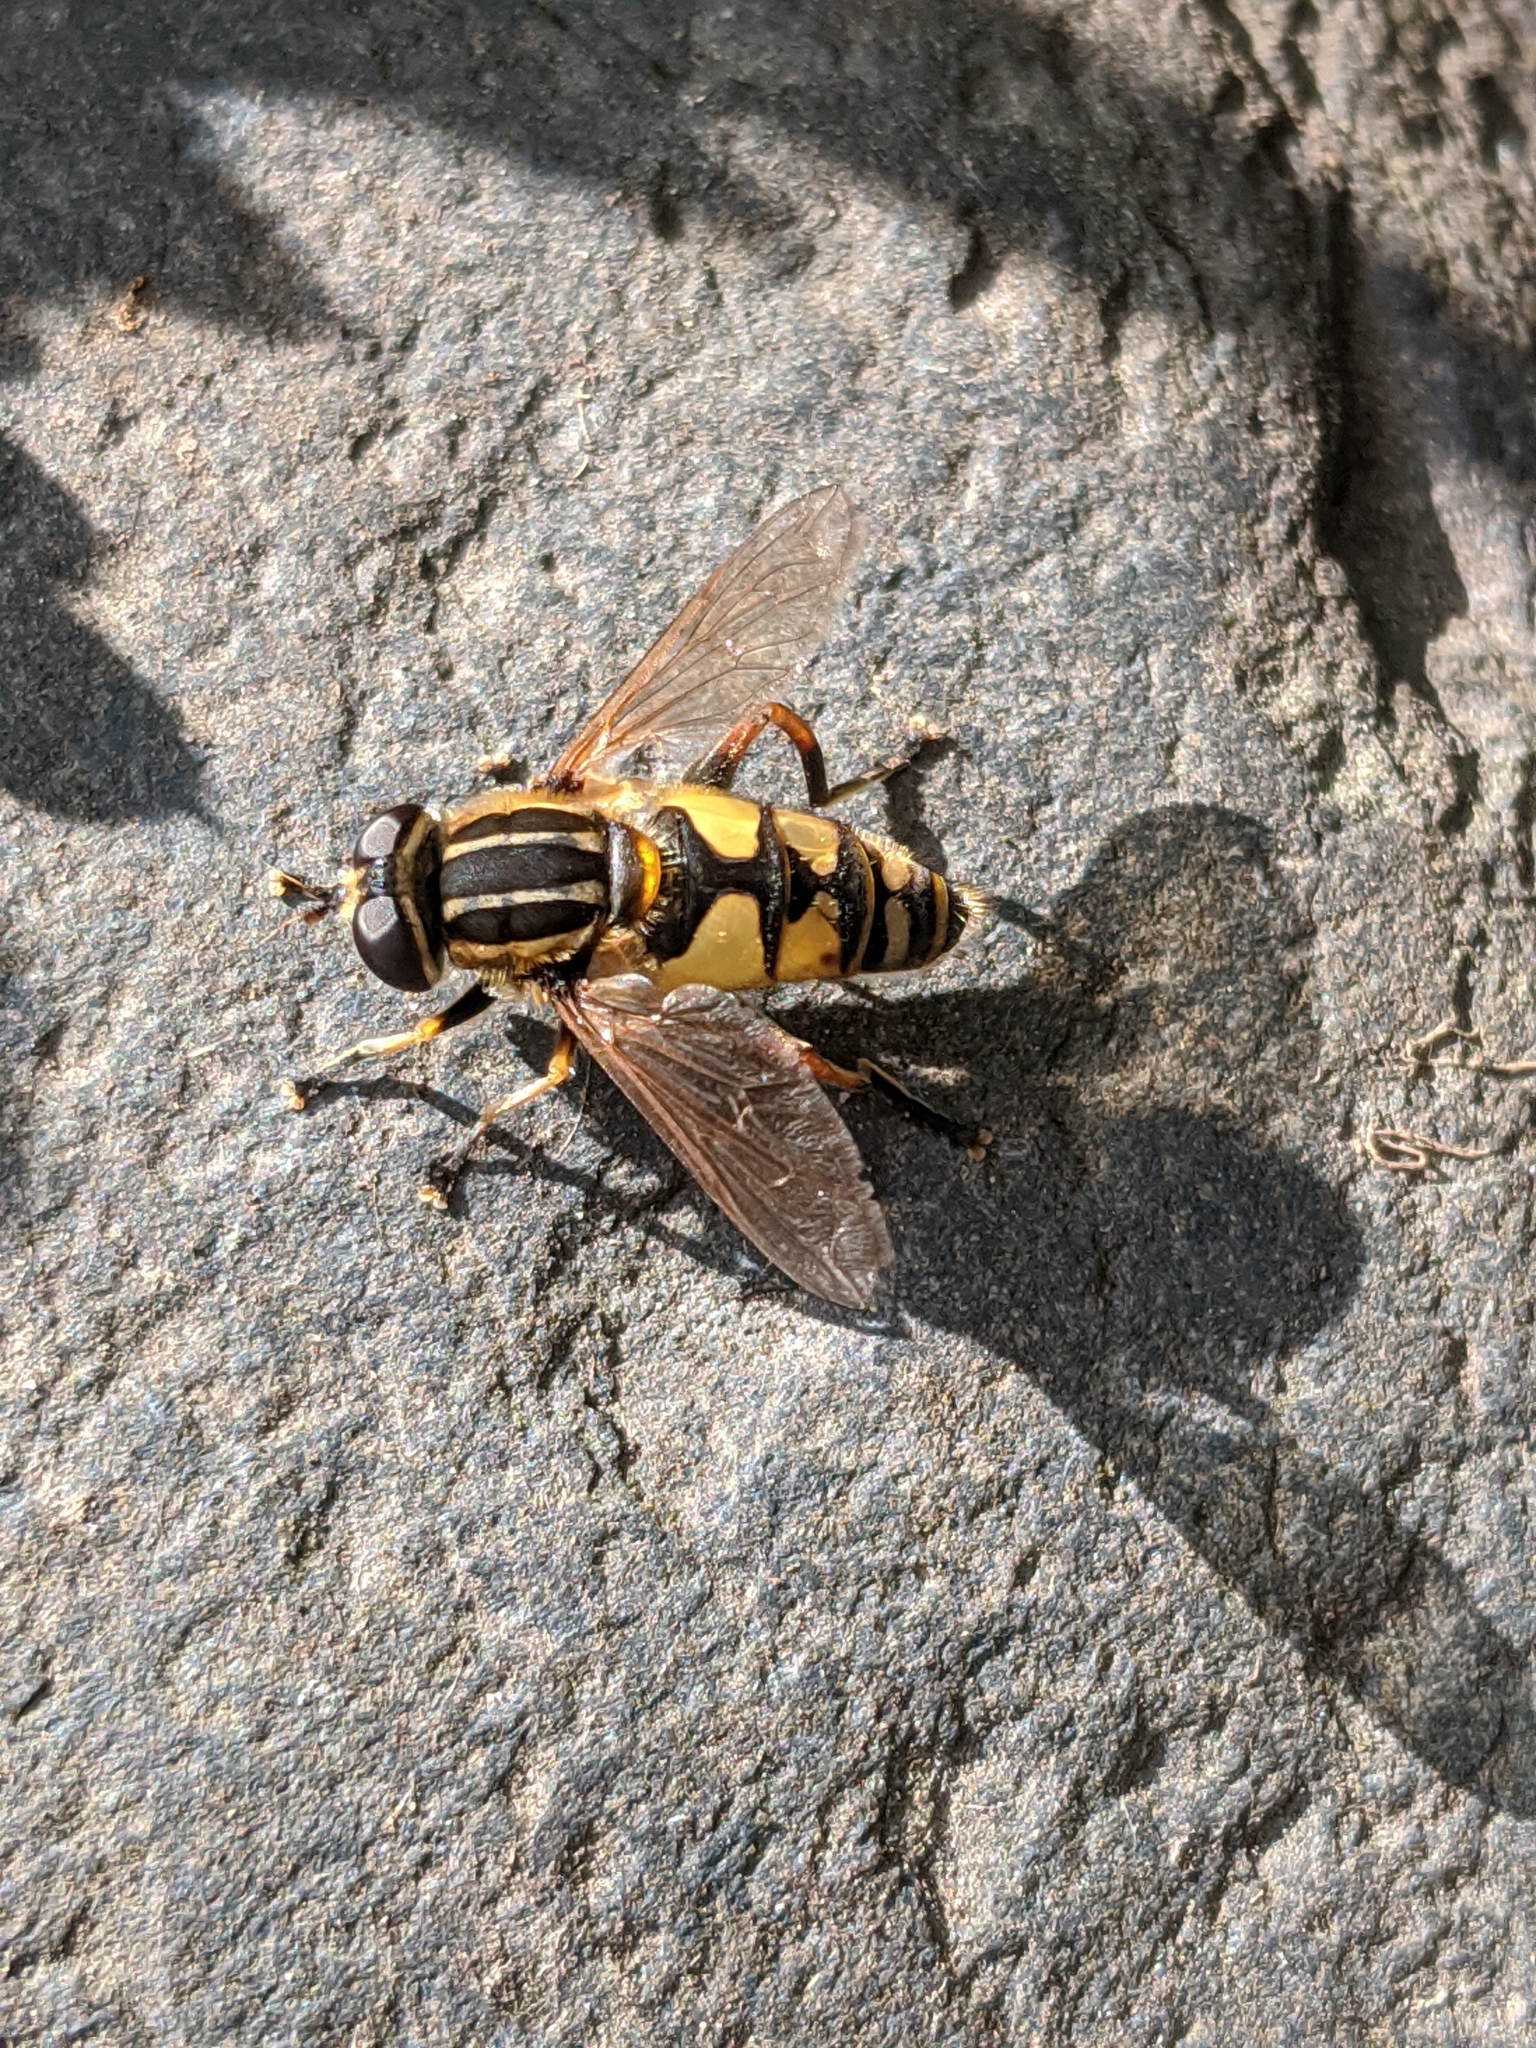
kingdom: Animalia
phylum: Arthropoda
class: Insecta
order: Diptera
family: Syrphidae
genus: Helophilus
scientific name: Helophilus pendulus
